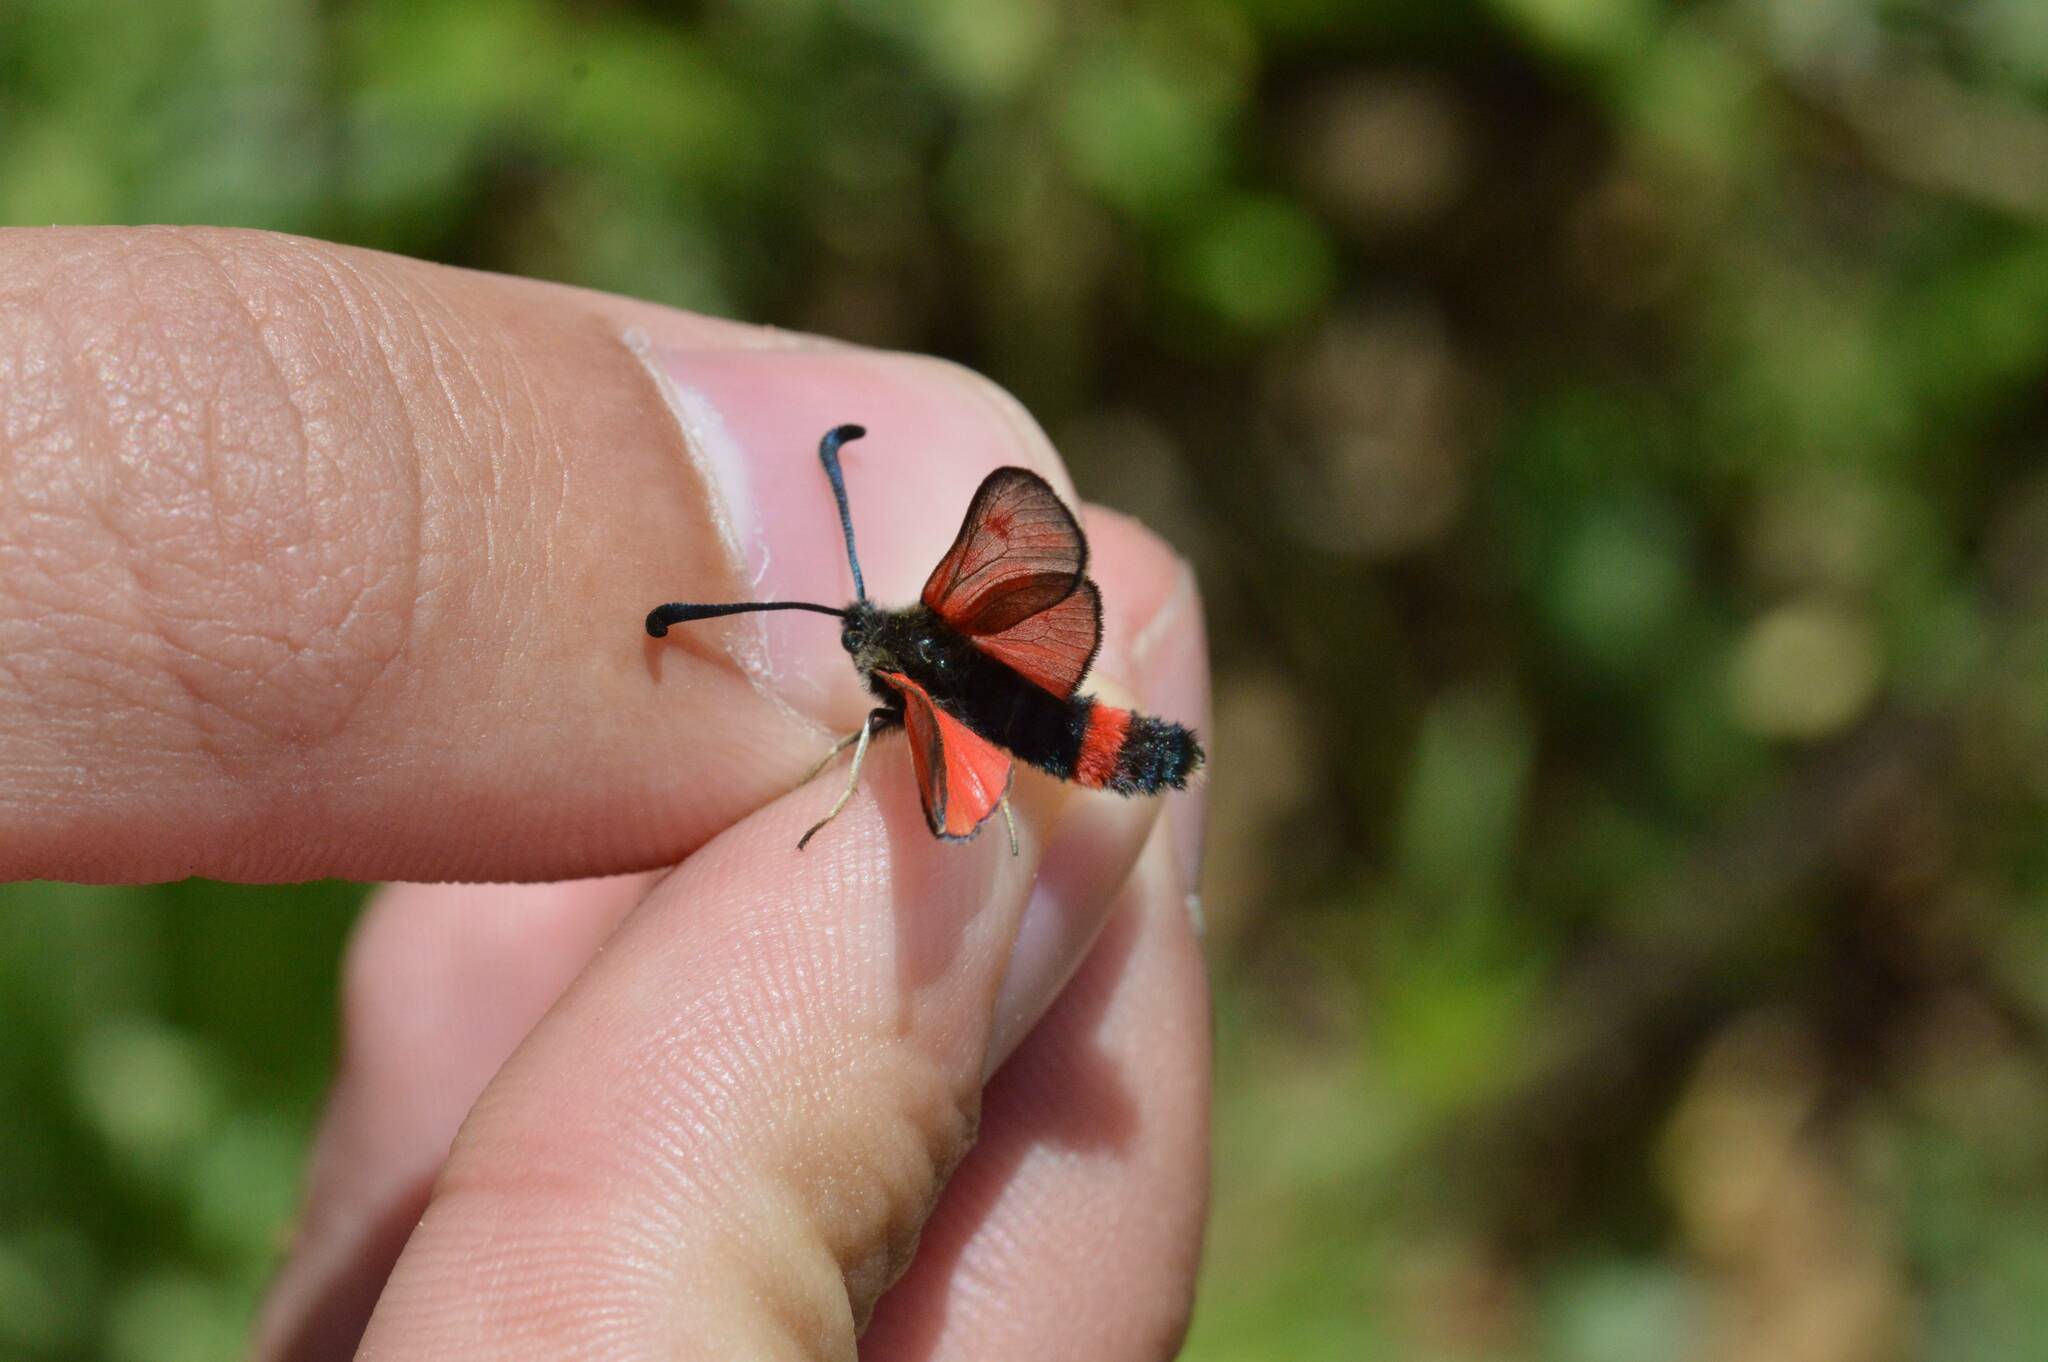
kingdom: Animalia
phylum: Arthropoda
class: Insecta
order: Lepidoptera
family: Zygaenidae
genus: Zygaena
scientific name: Zygaena favonia
